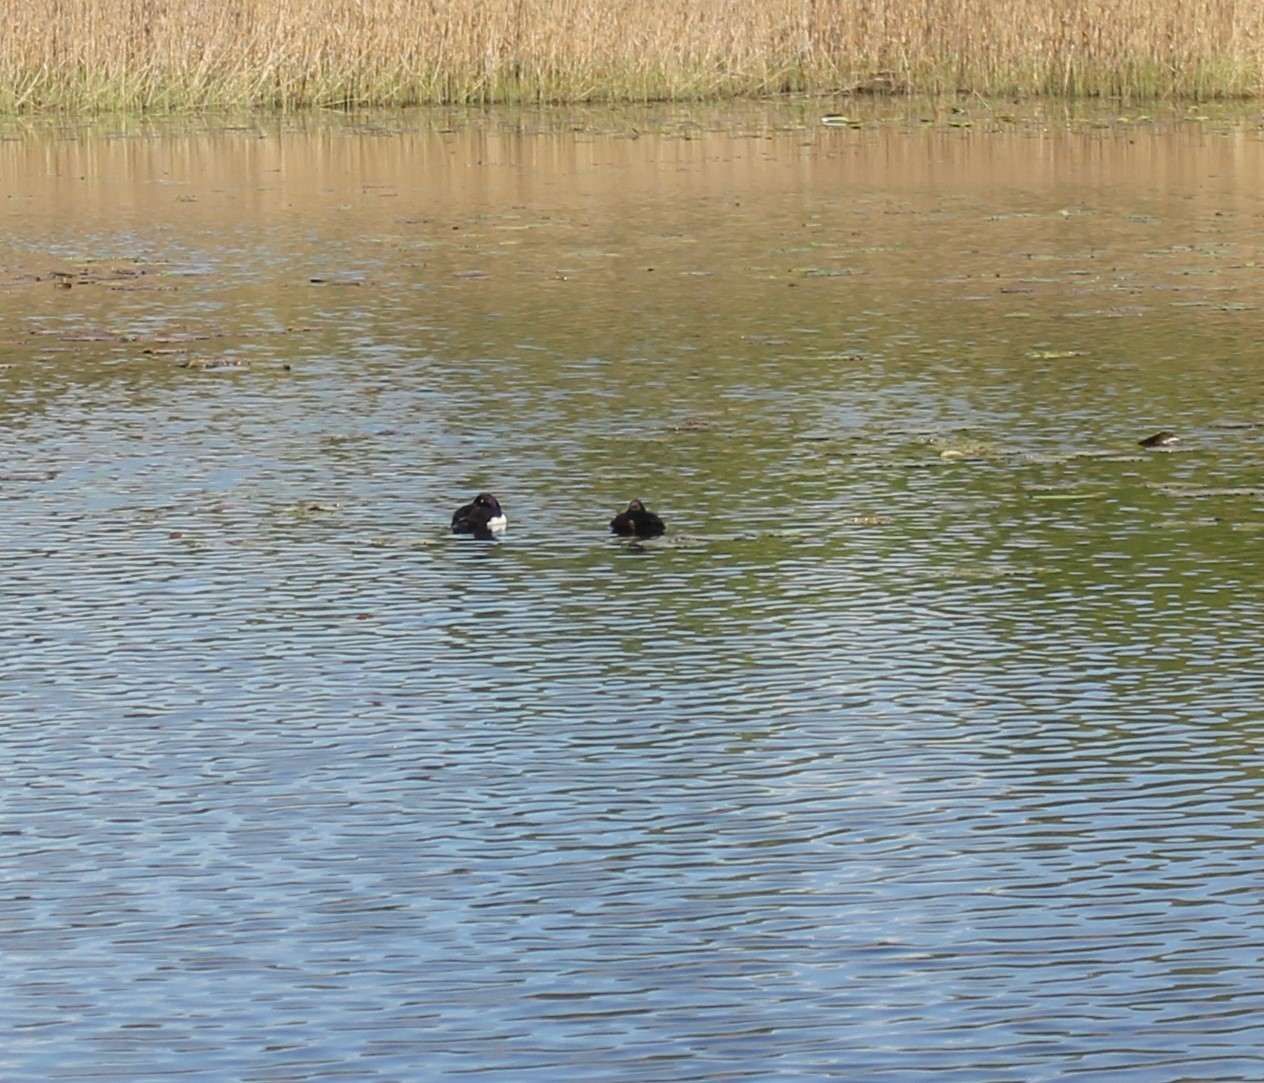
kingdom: Animalia
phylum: Chordata
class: Aves
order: Anseriformes
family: Anatidae
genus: Aythya
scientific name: Aythya fuligula
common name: Tufted duck
